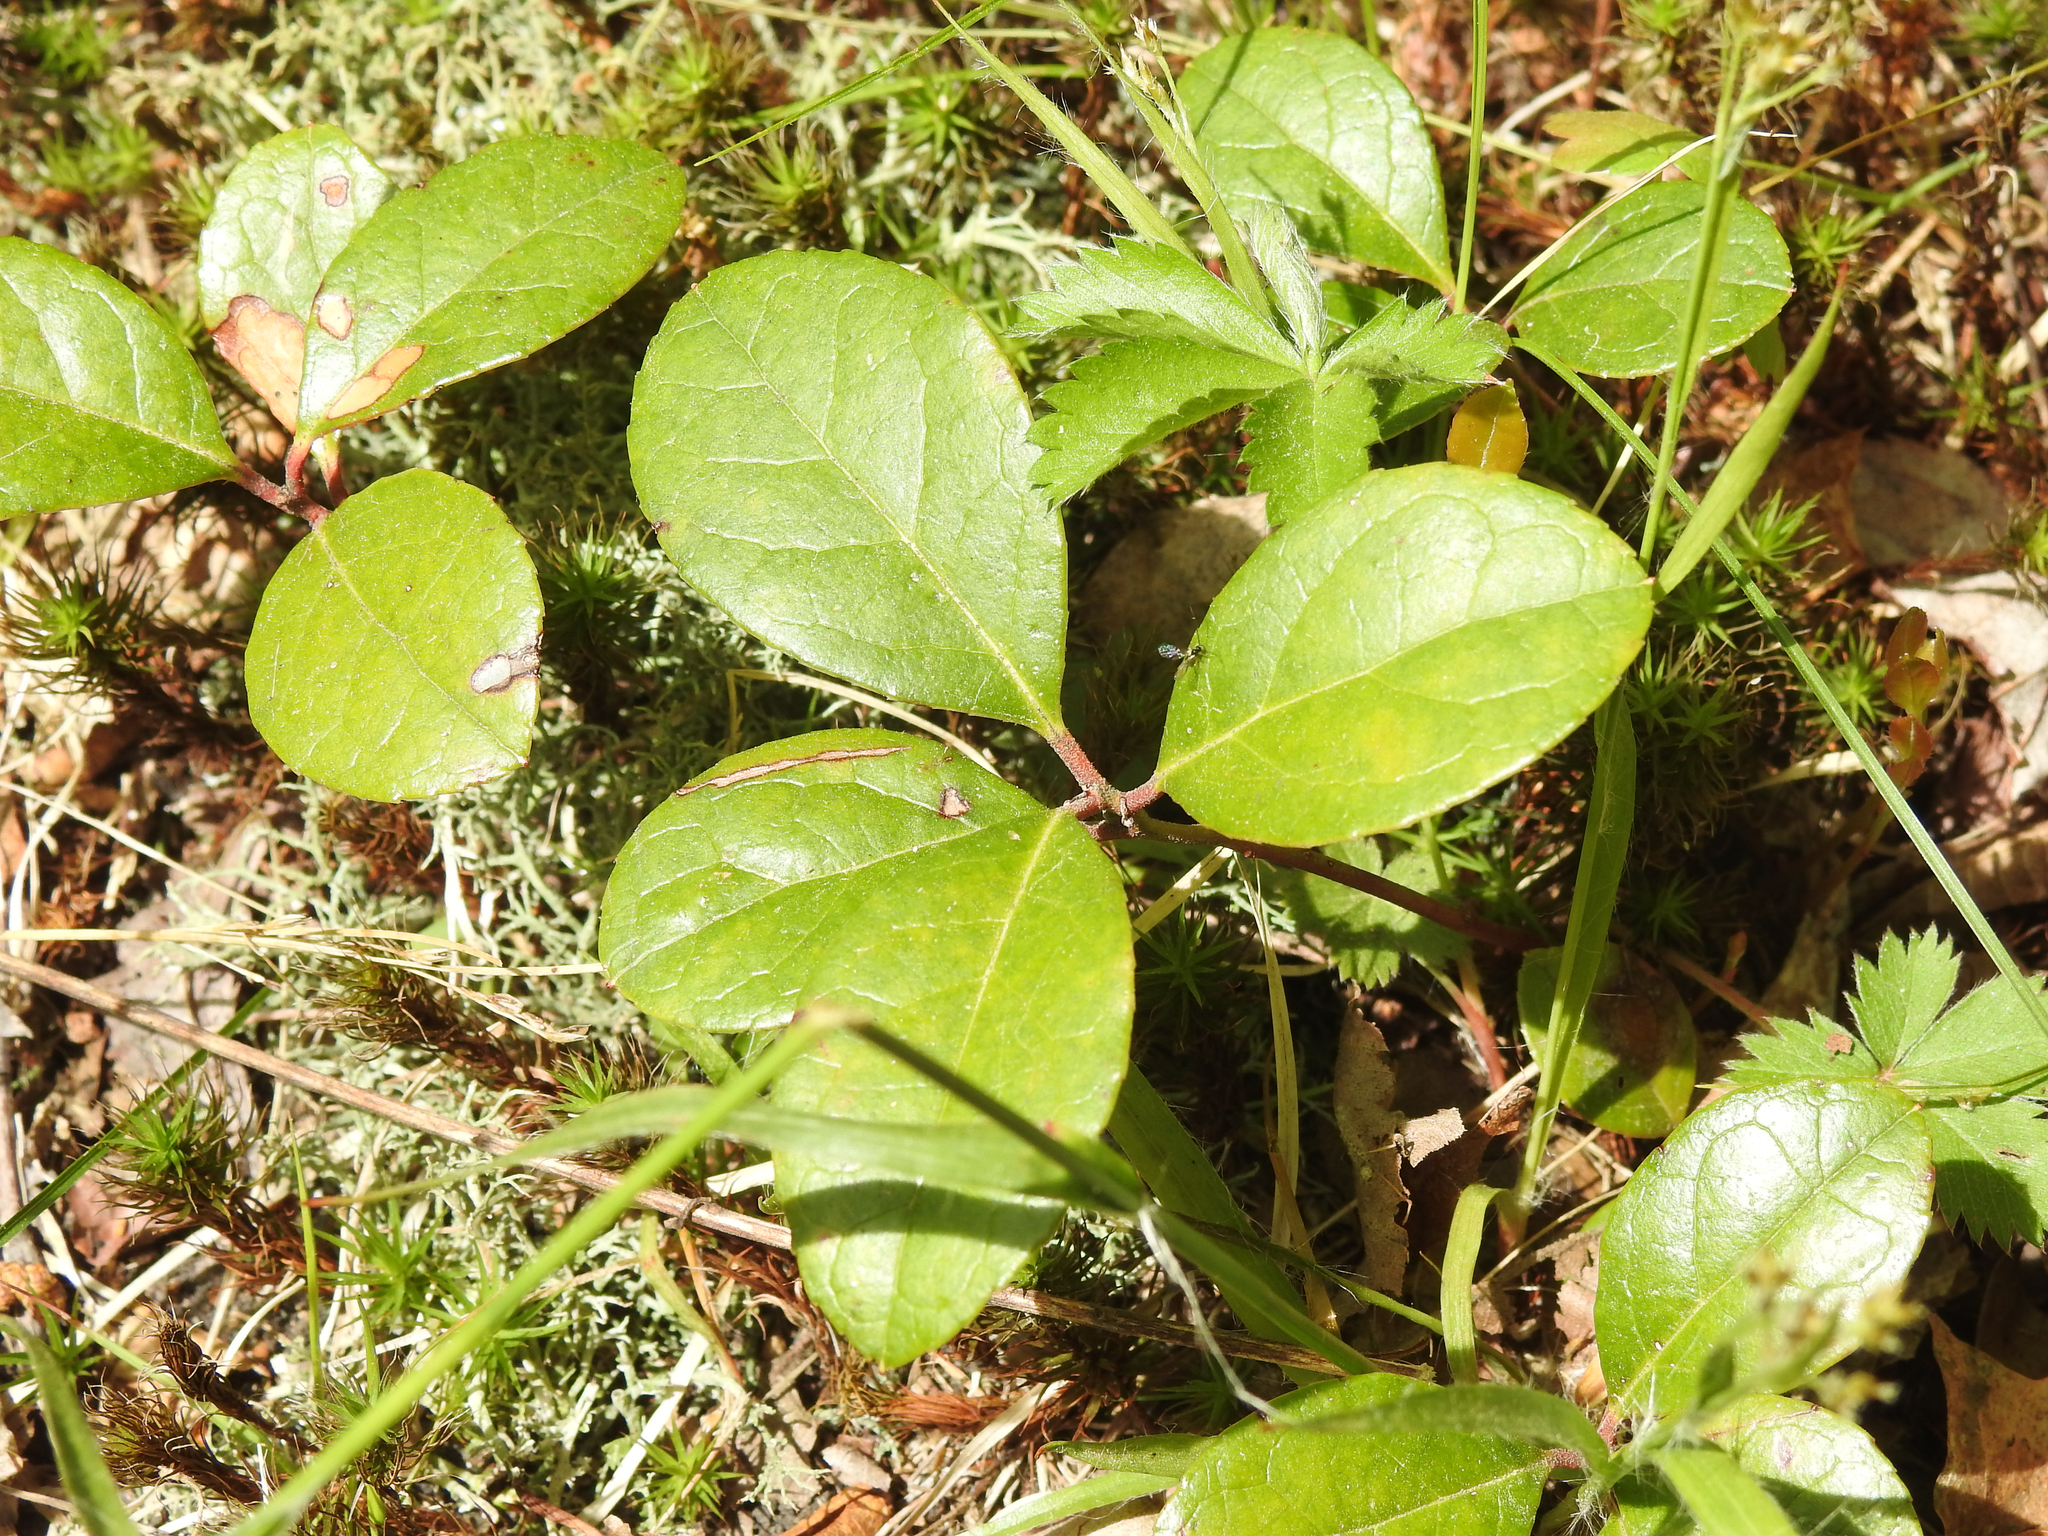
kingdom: Plantae
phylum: Tracheophyta
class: Magnoliopsida
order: Ericales
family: Ericaceae
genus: Gaultheria
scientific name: Gaultheria procumbens
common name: Checkerberry
